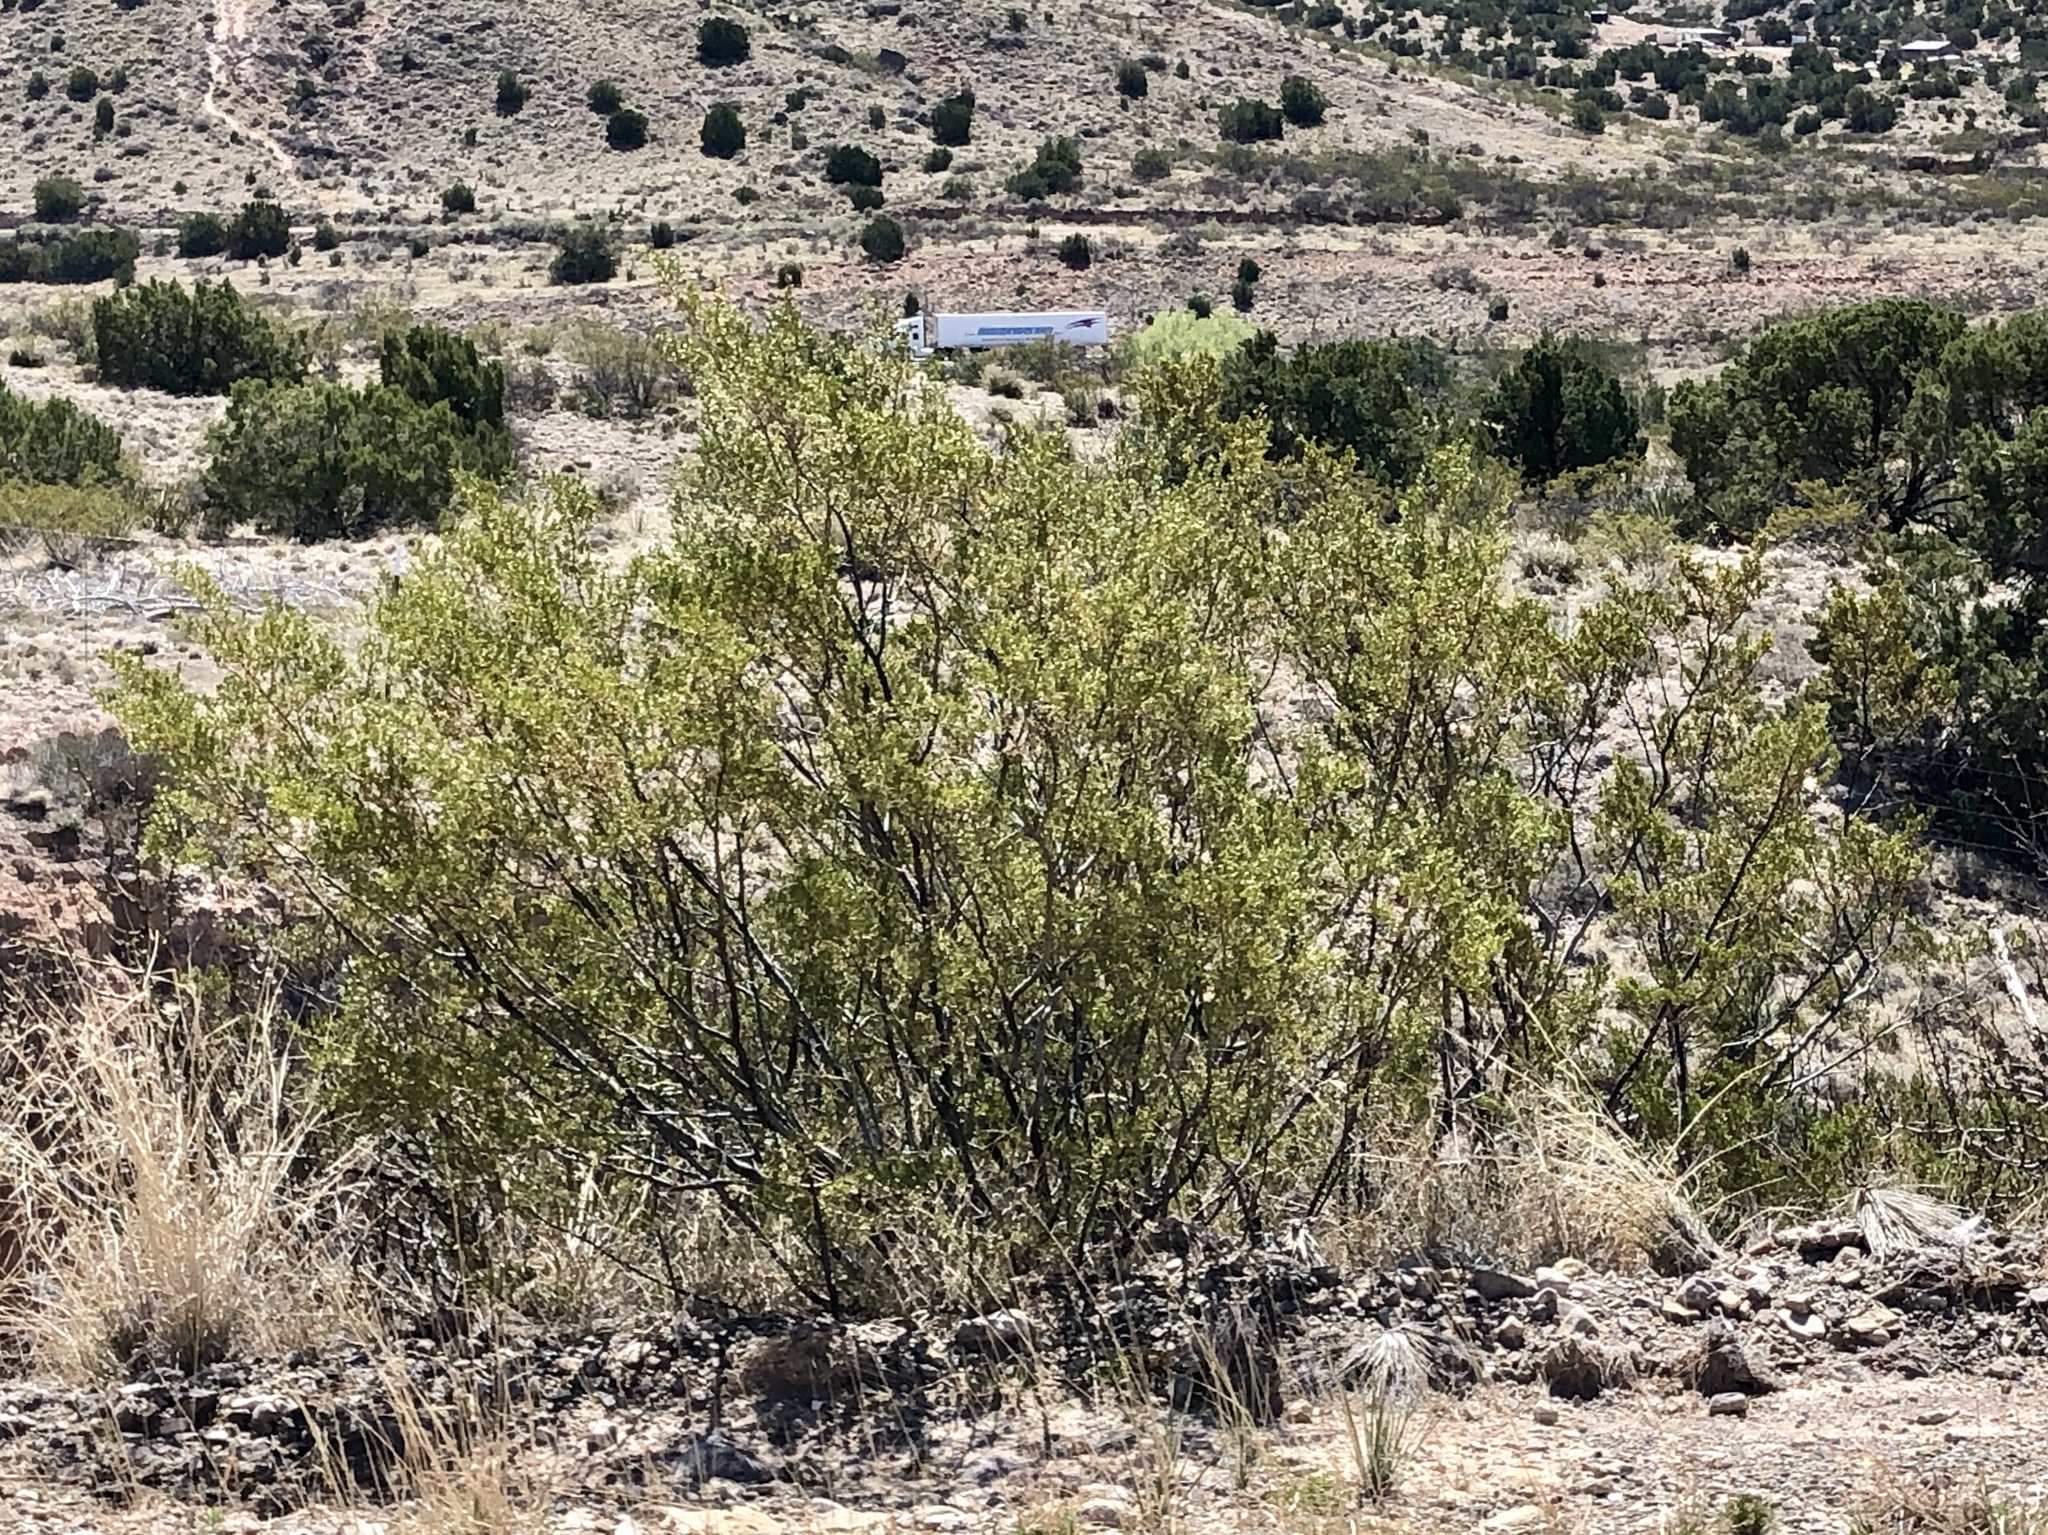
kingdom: Plantae
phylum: Tracheophyta
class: Magnoliopsida
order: Zygophyllales
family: Zygophyllaceae
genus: Larrea
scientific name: Larrea tridentata
